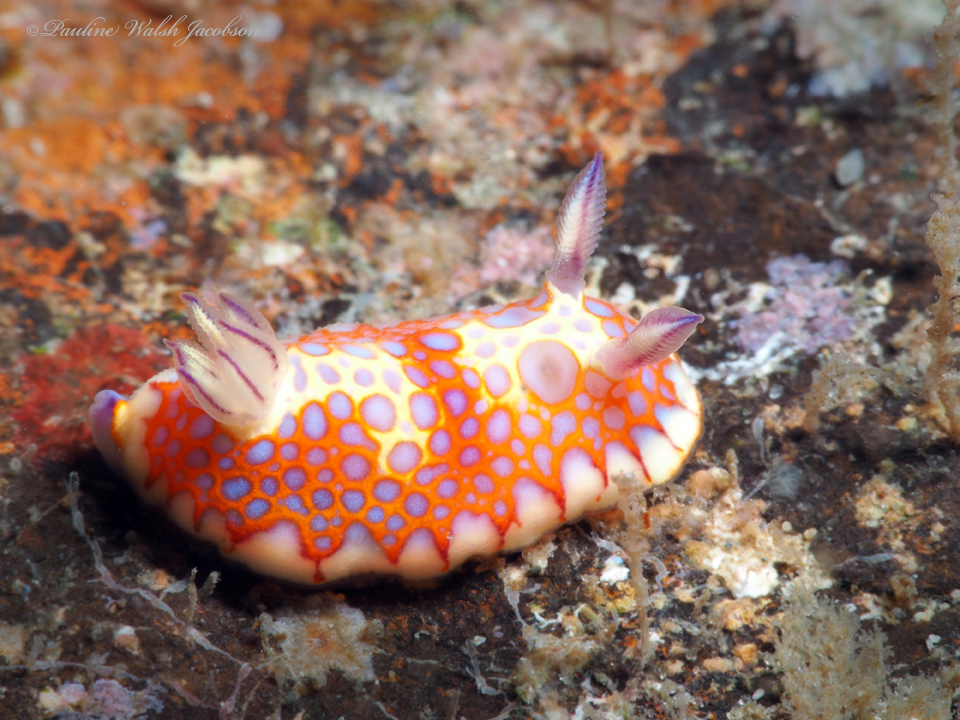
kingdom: Animalia
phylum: Mollusca
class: Gastropoda
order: Nudibranchia
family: Chromodorididae
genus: Felimida
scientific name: Felimida binza
